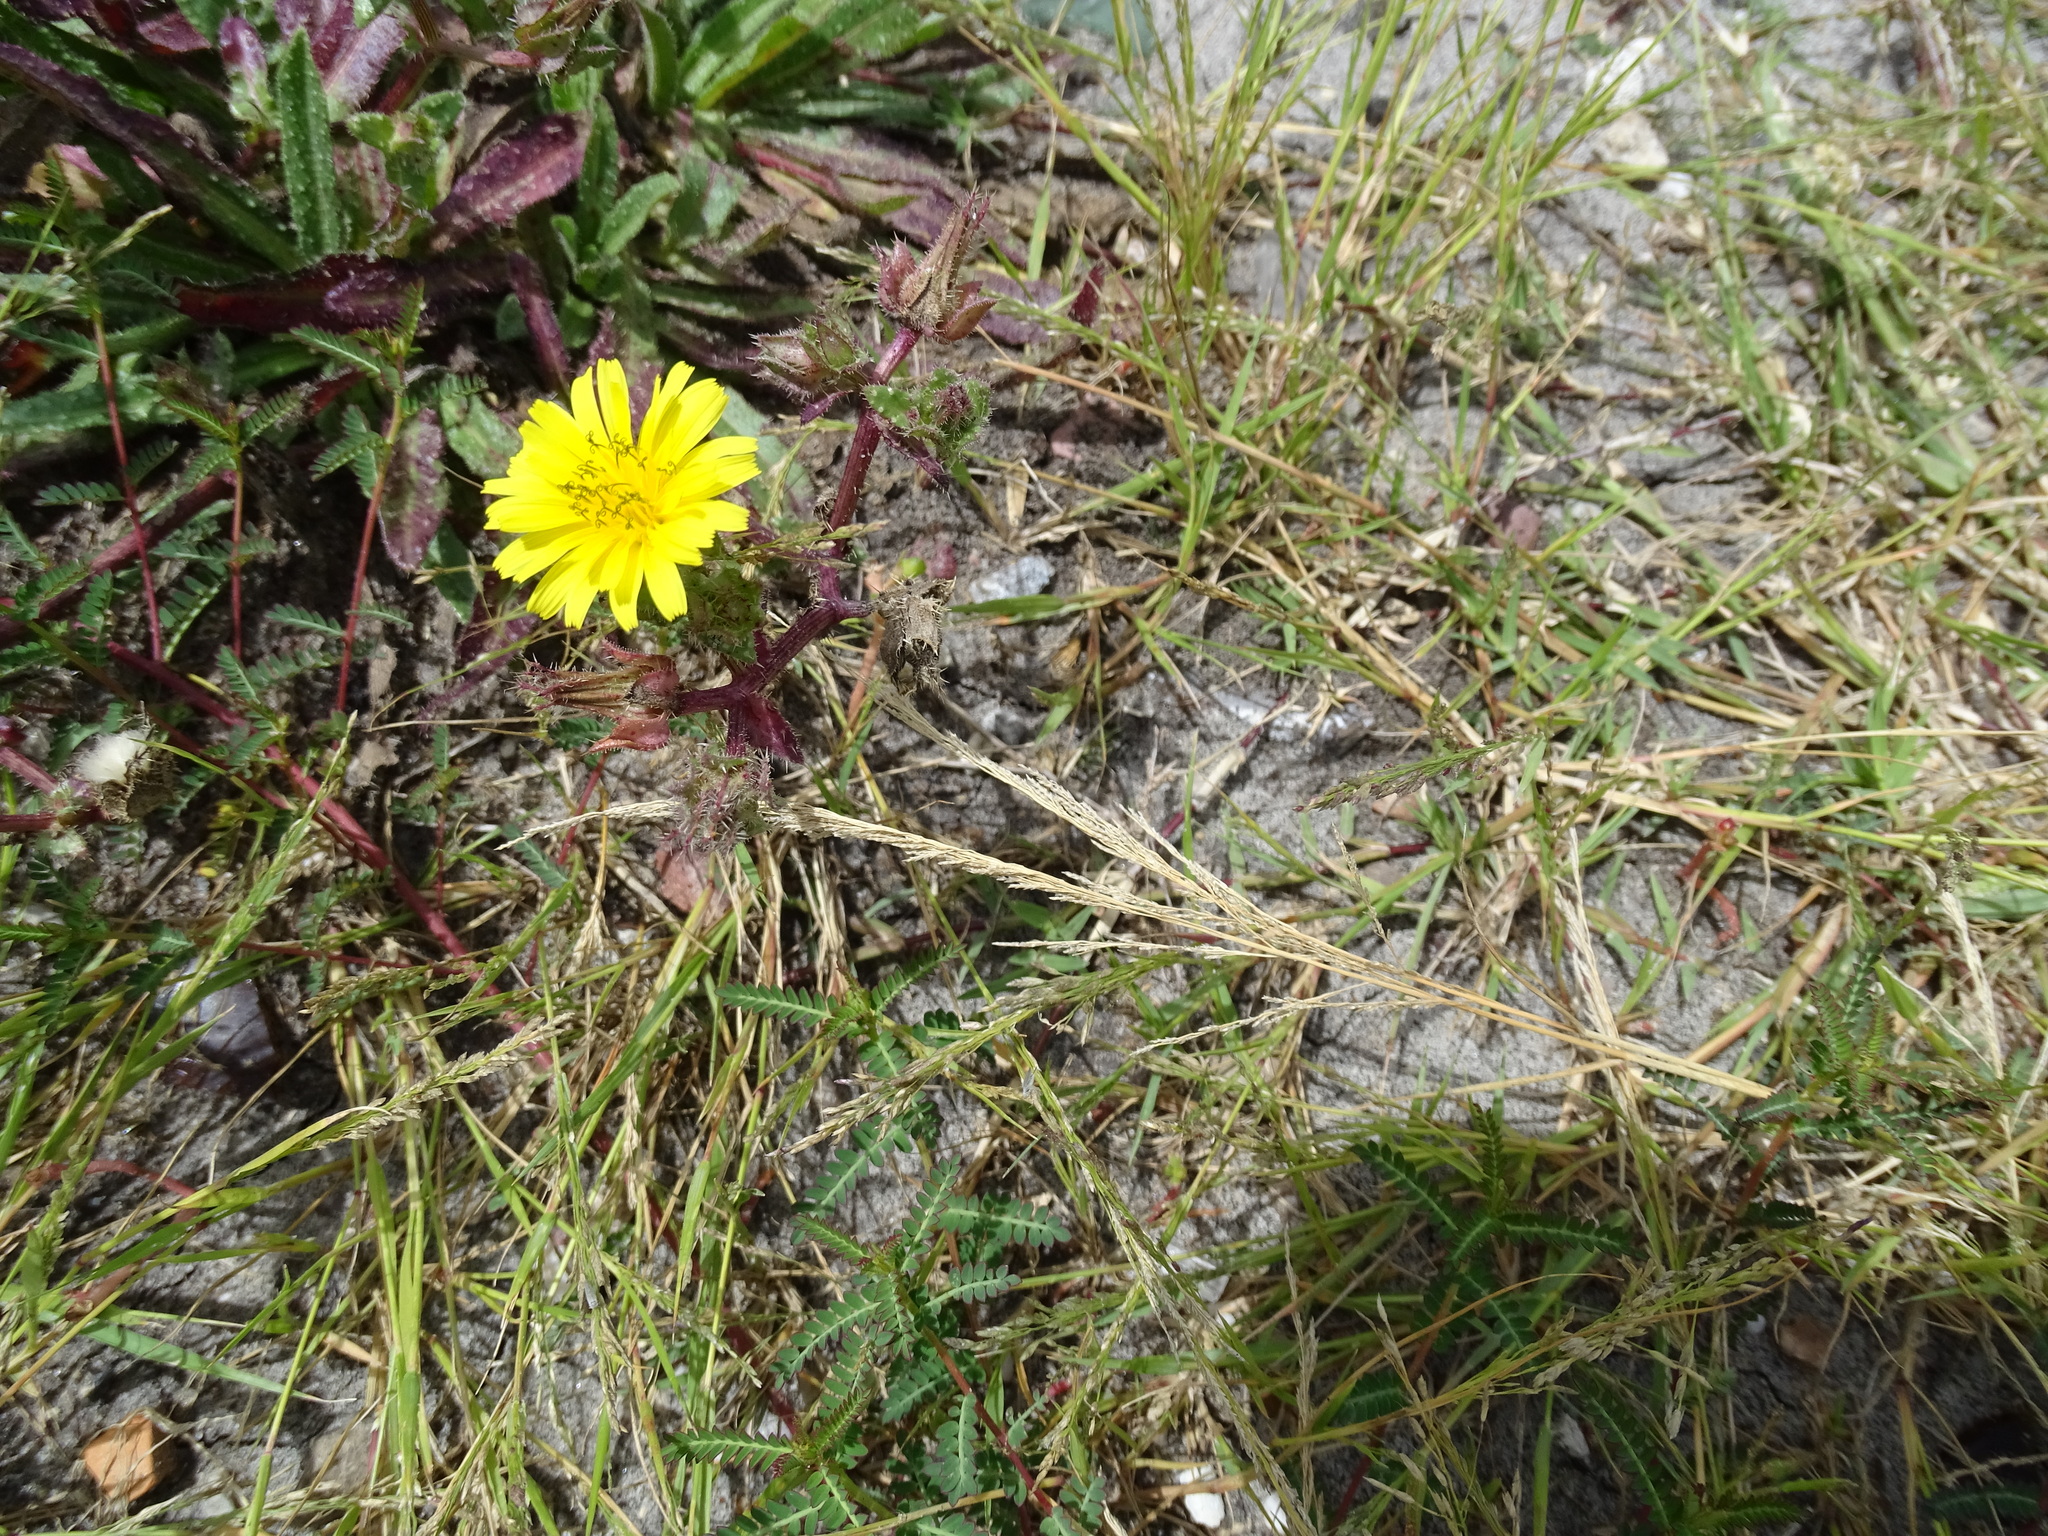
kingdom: Plantae
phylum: Tracheophyta
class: Magnoliopsida
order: Asterales
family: Asteraceae
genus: Helminthotheca
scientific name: Helminthotheca echioides
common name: Ox-tongue
